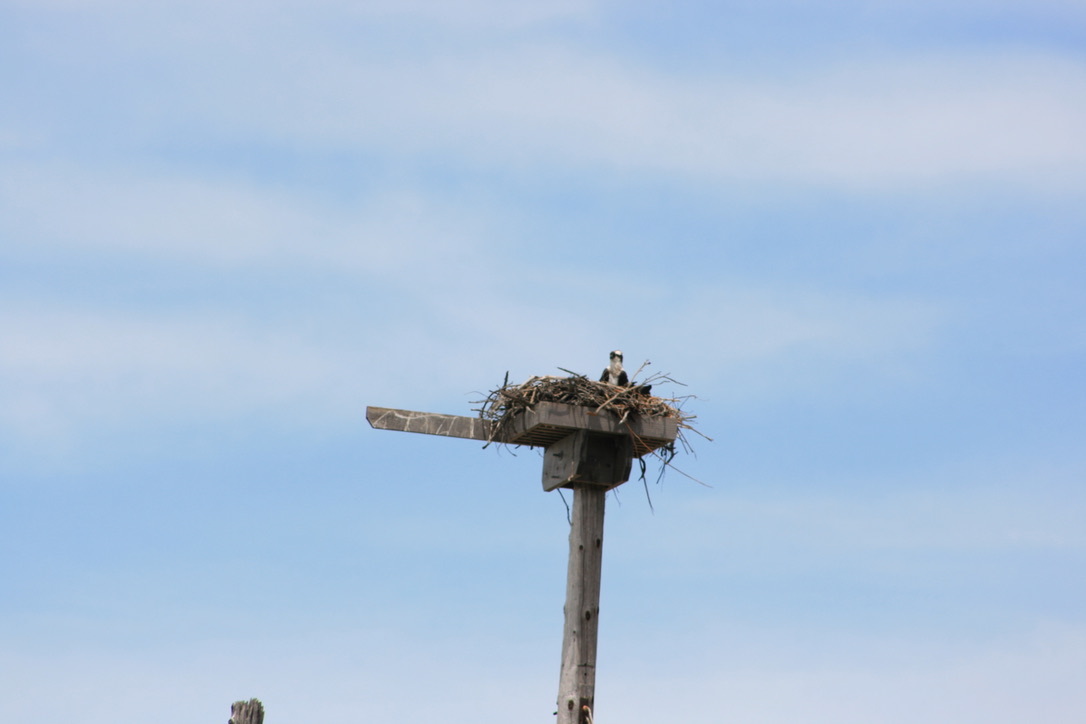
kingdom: Animalia
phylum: Chordata
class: Aves
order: Accipitriformes
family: Pandionidae
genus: Pandion
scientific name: Pandion haliaetus
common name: Osprey
